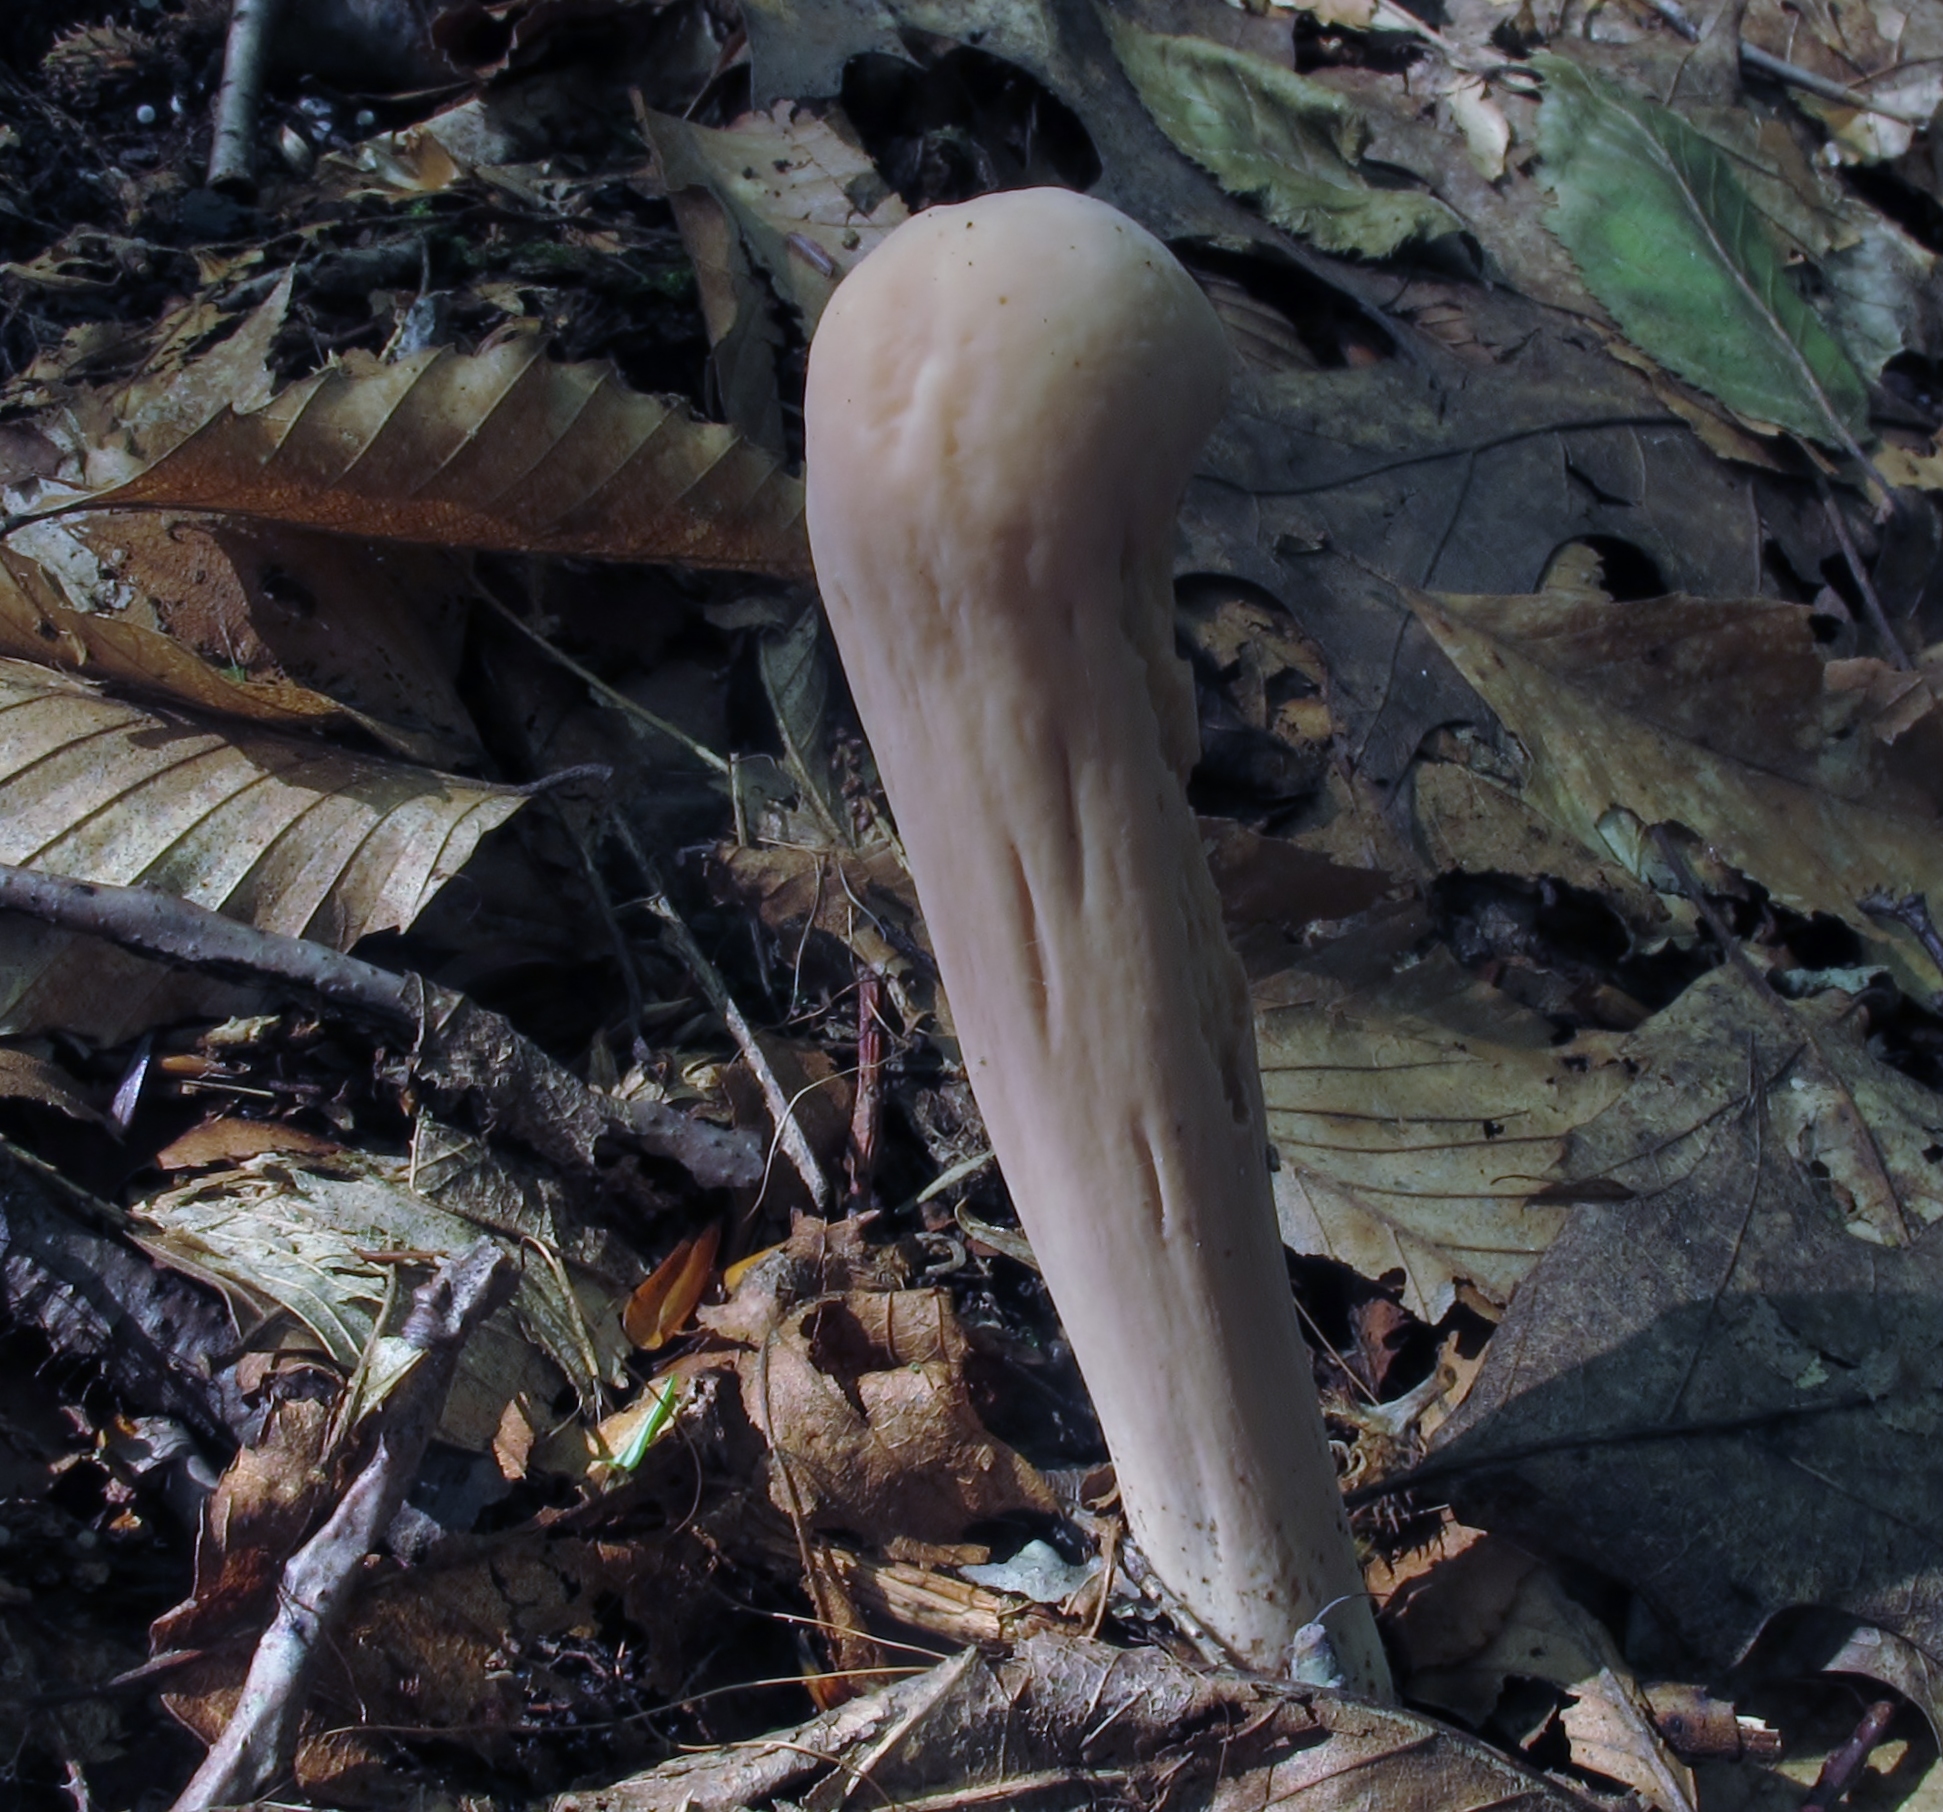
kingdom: Fungi
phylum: Basidiomycota
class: Agaricomycetes
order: Gomphales
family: Clavariadelphaceae
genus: Clavariadelphus
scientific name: Clavariadelphus pistillaris
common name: Giant club
